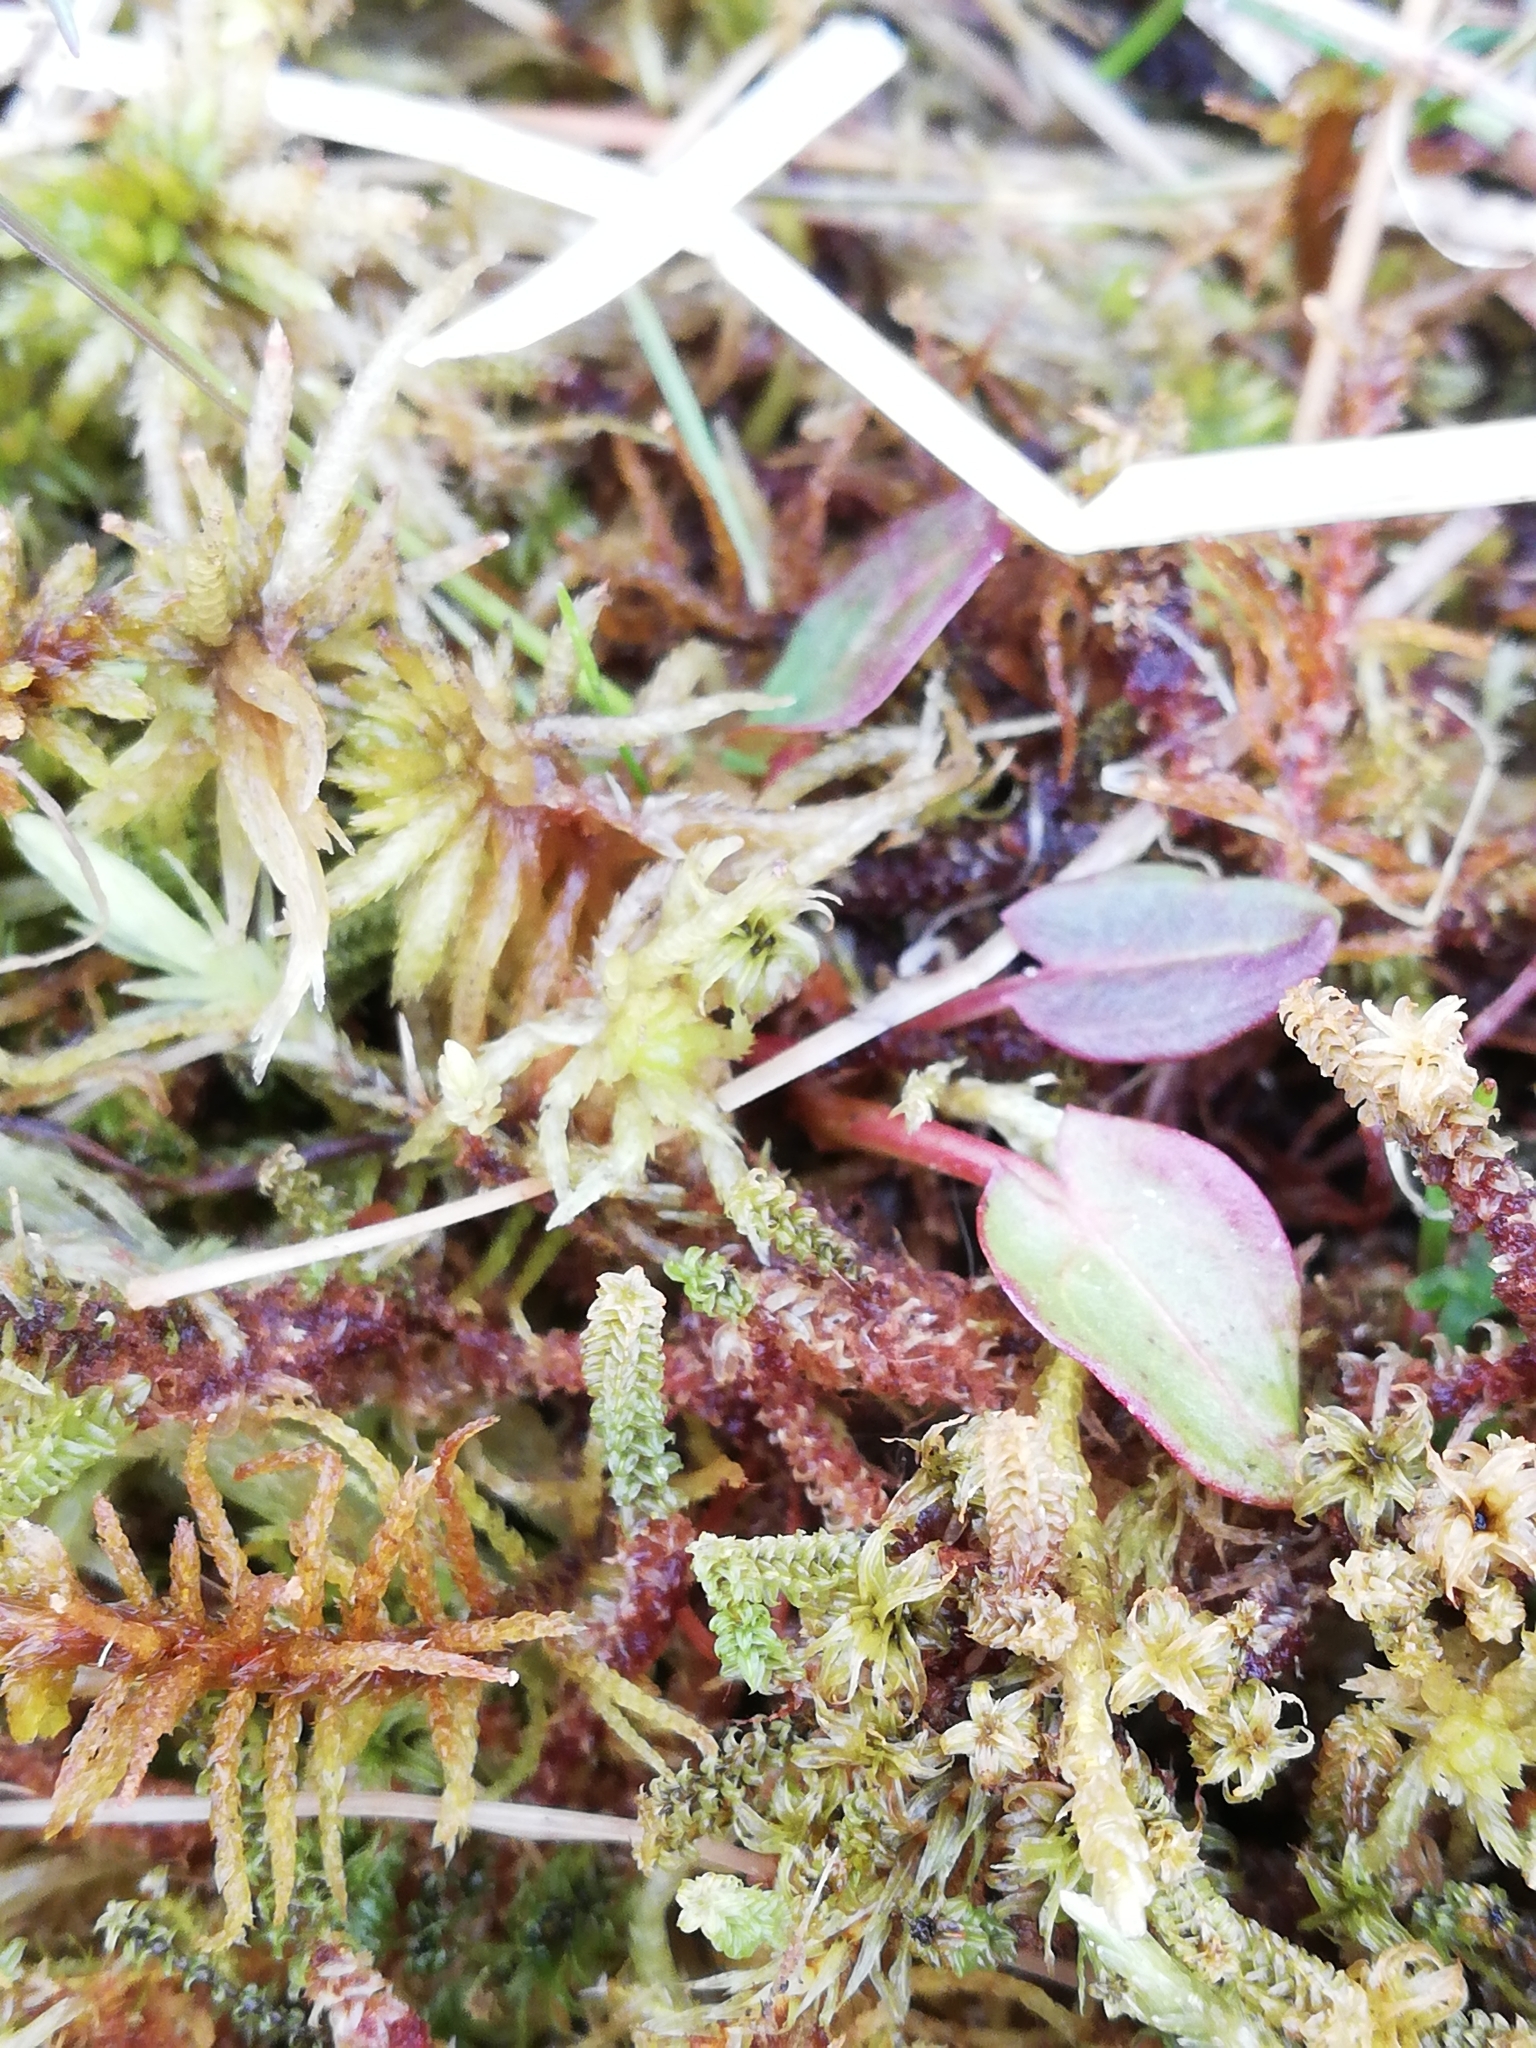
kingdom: Plantae
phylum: Bryophyta
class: Bryopsida
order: Splachnales
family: Meesiaceae
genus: Paludella
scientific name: Paludella squarrosa
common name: Tufted fen moss
